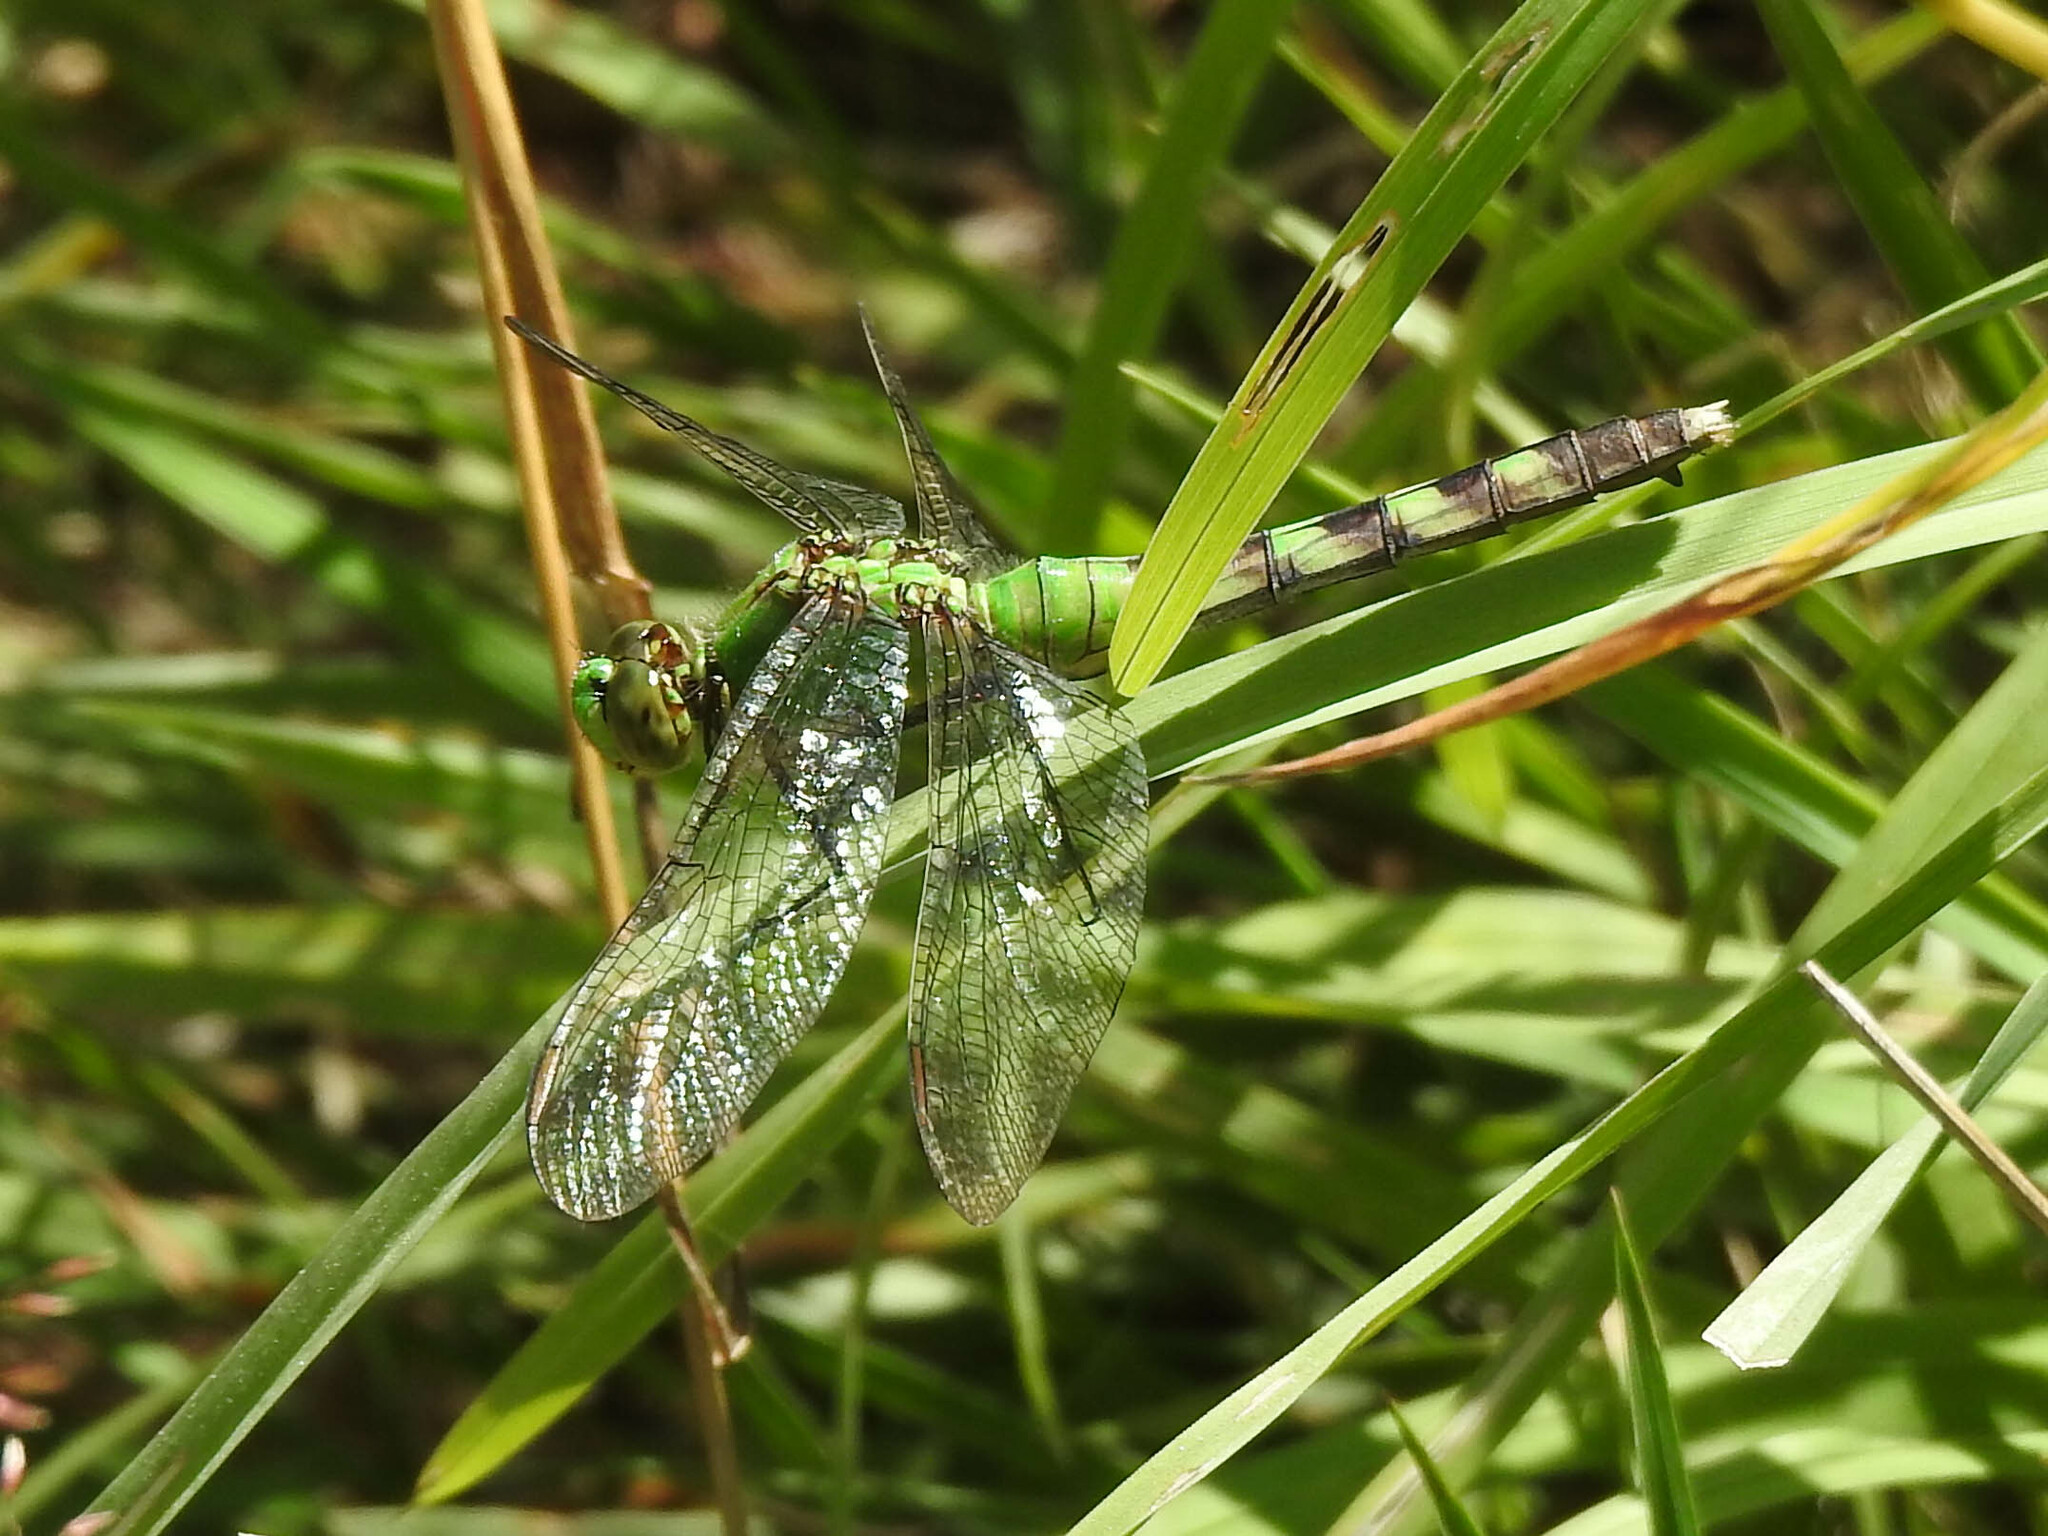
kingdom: Animalia
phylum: Arthropoda
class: Insecta
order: Odonata
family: Libellulidae
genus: Erythemis
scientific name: Erythemis simplicicollis
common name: Eastern pondhawk
